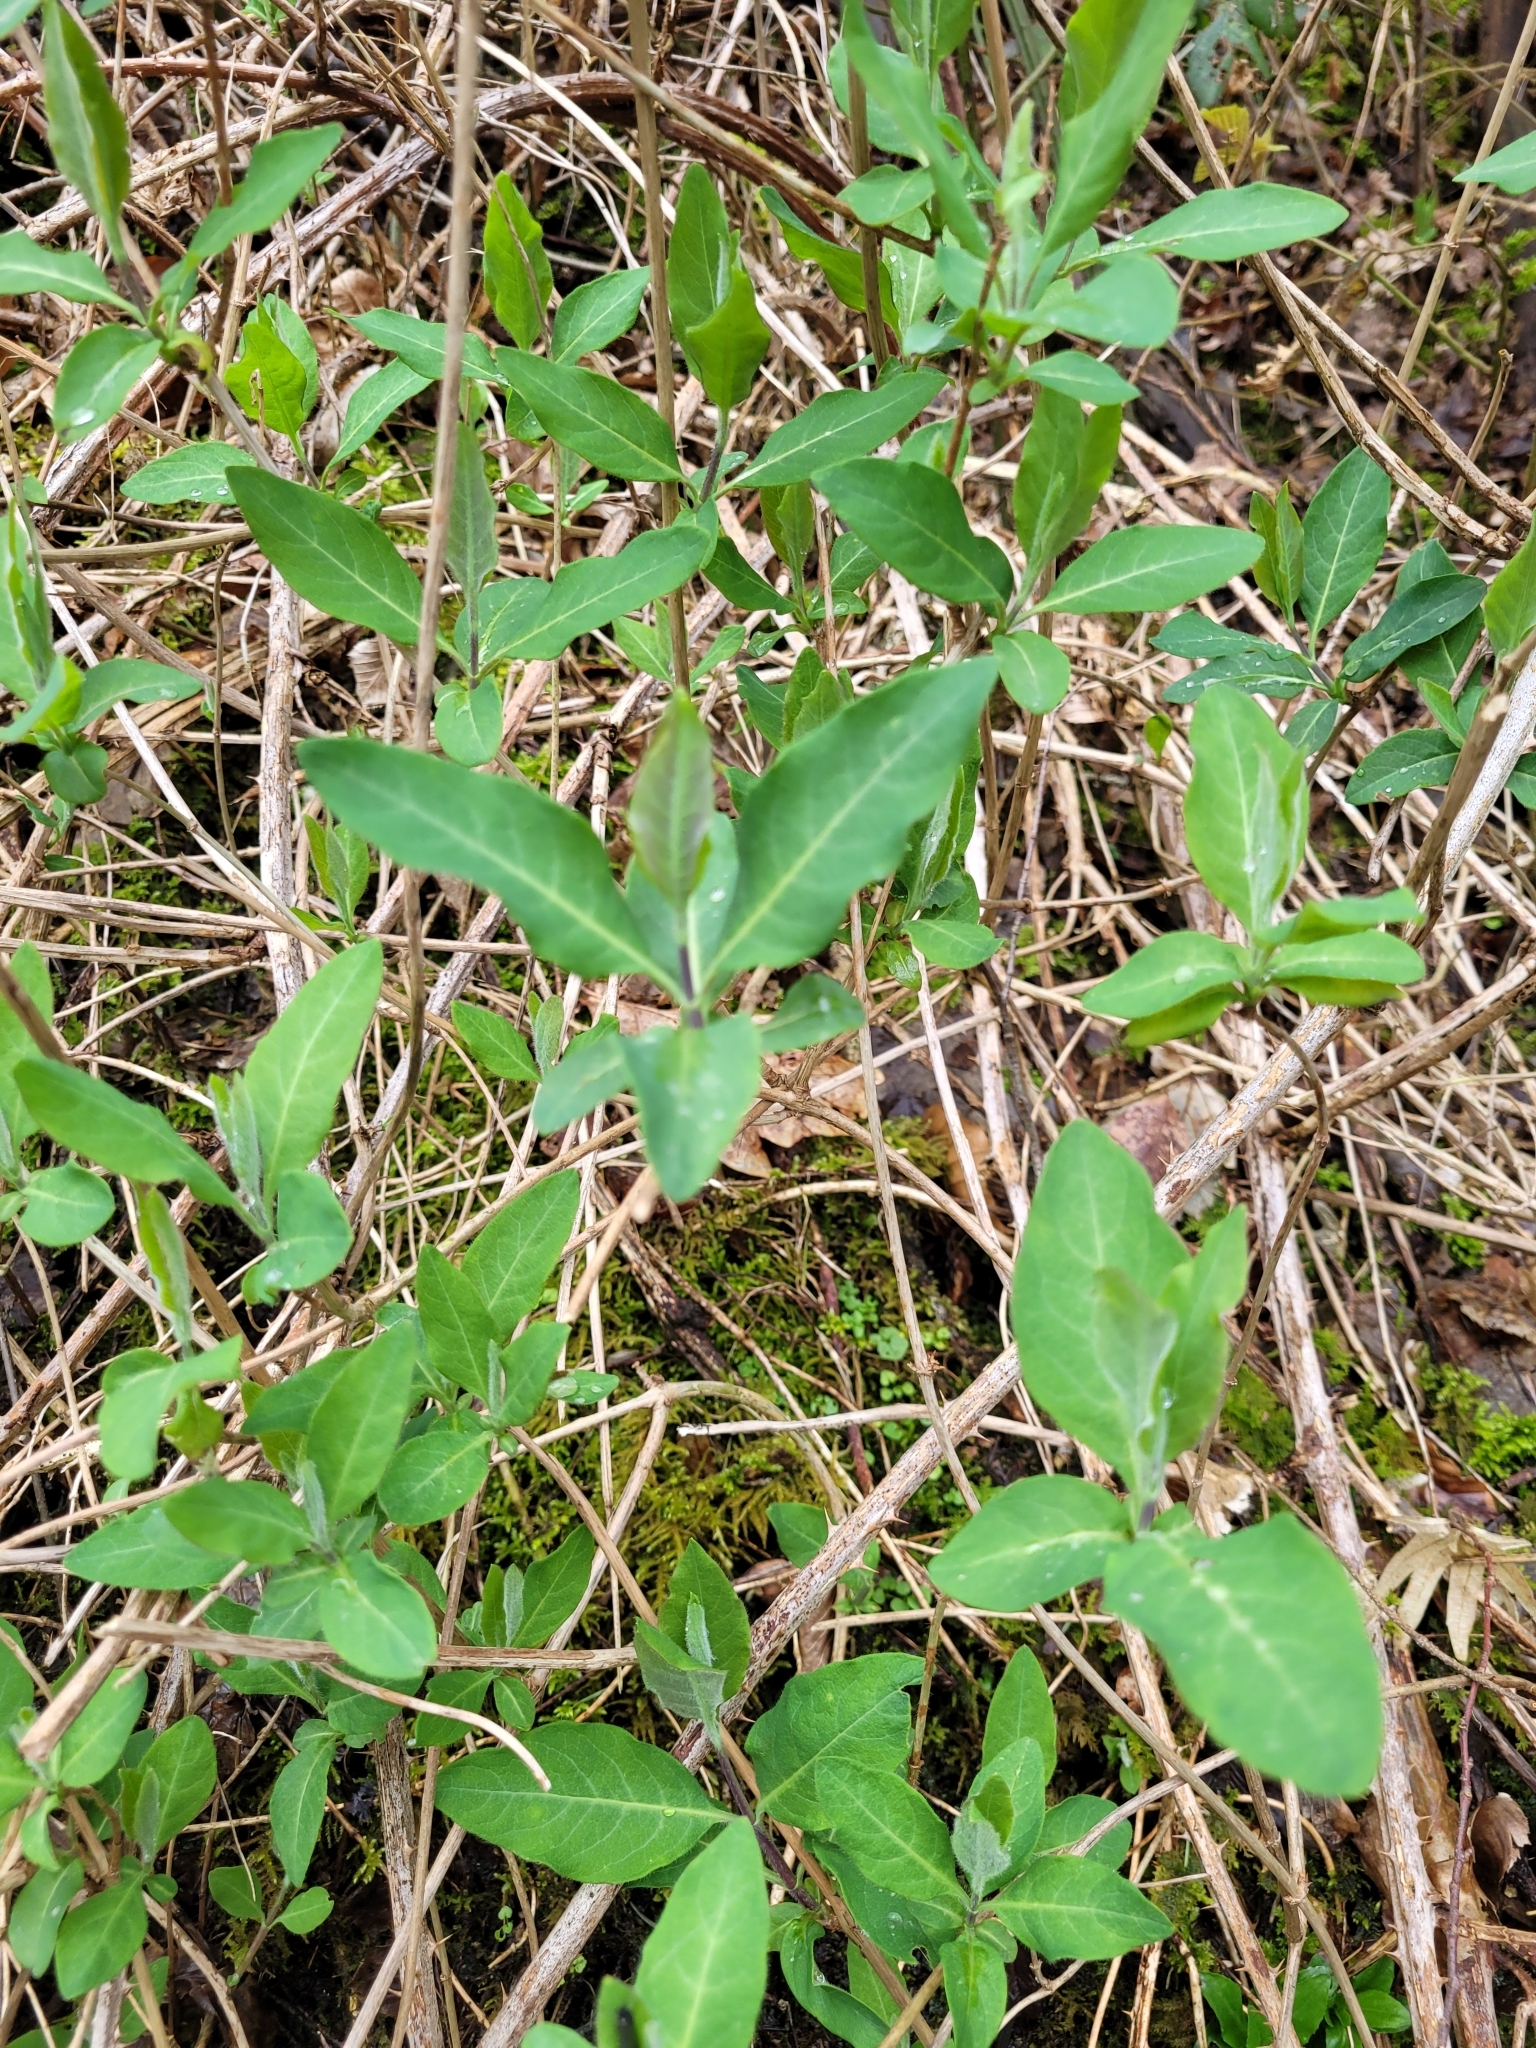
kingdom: Plantae
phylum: Tracheophyta
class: Magnoliopsida
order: Dipsacales
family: Caprifoliaceae
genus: Lonicera
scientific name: Lonicera periclymenum
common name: European honeysuckle
